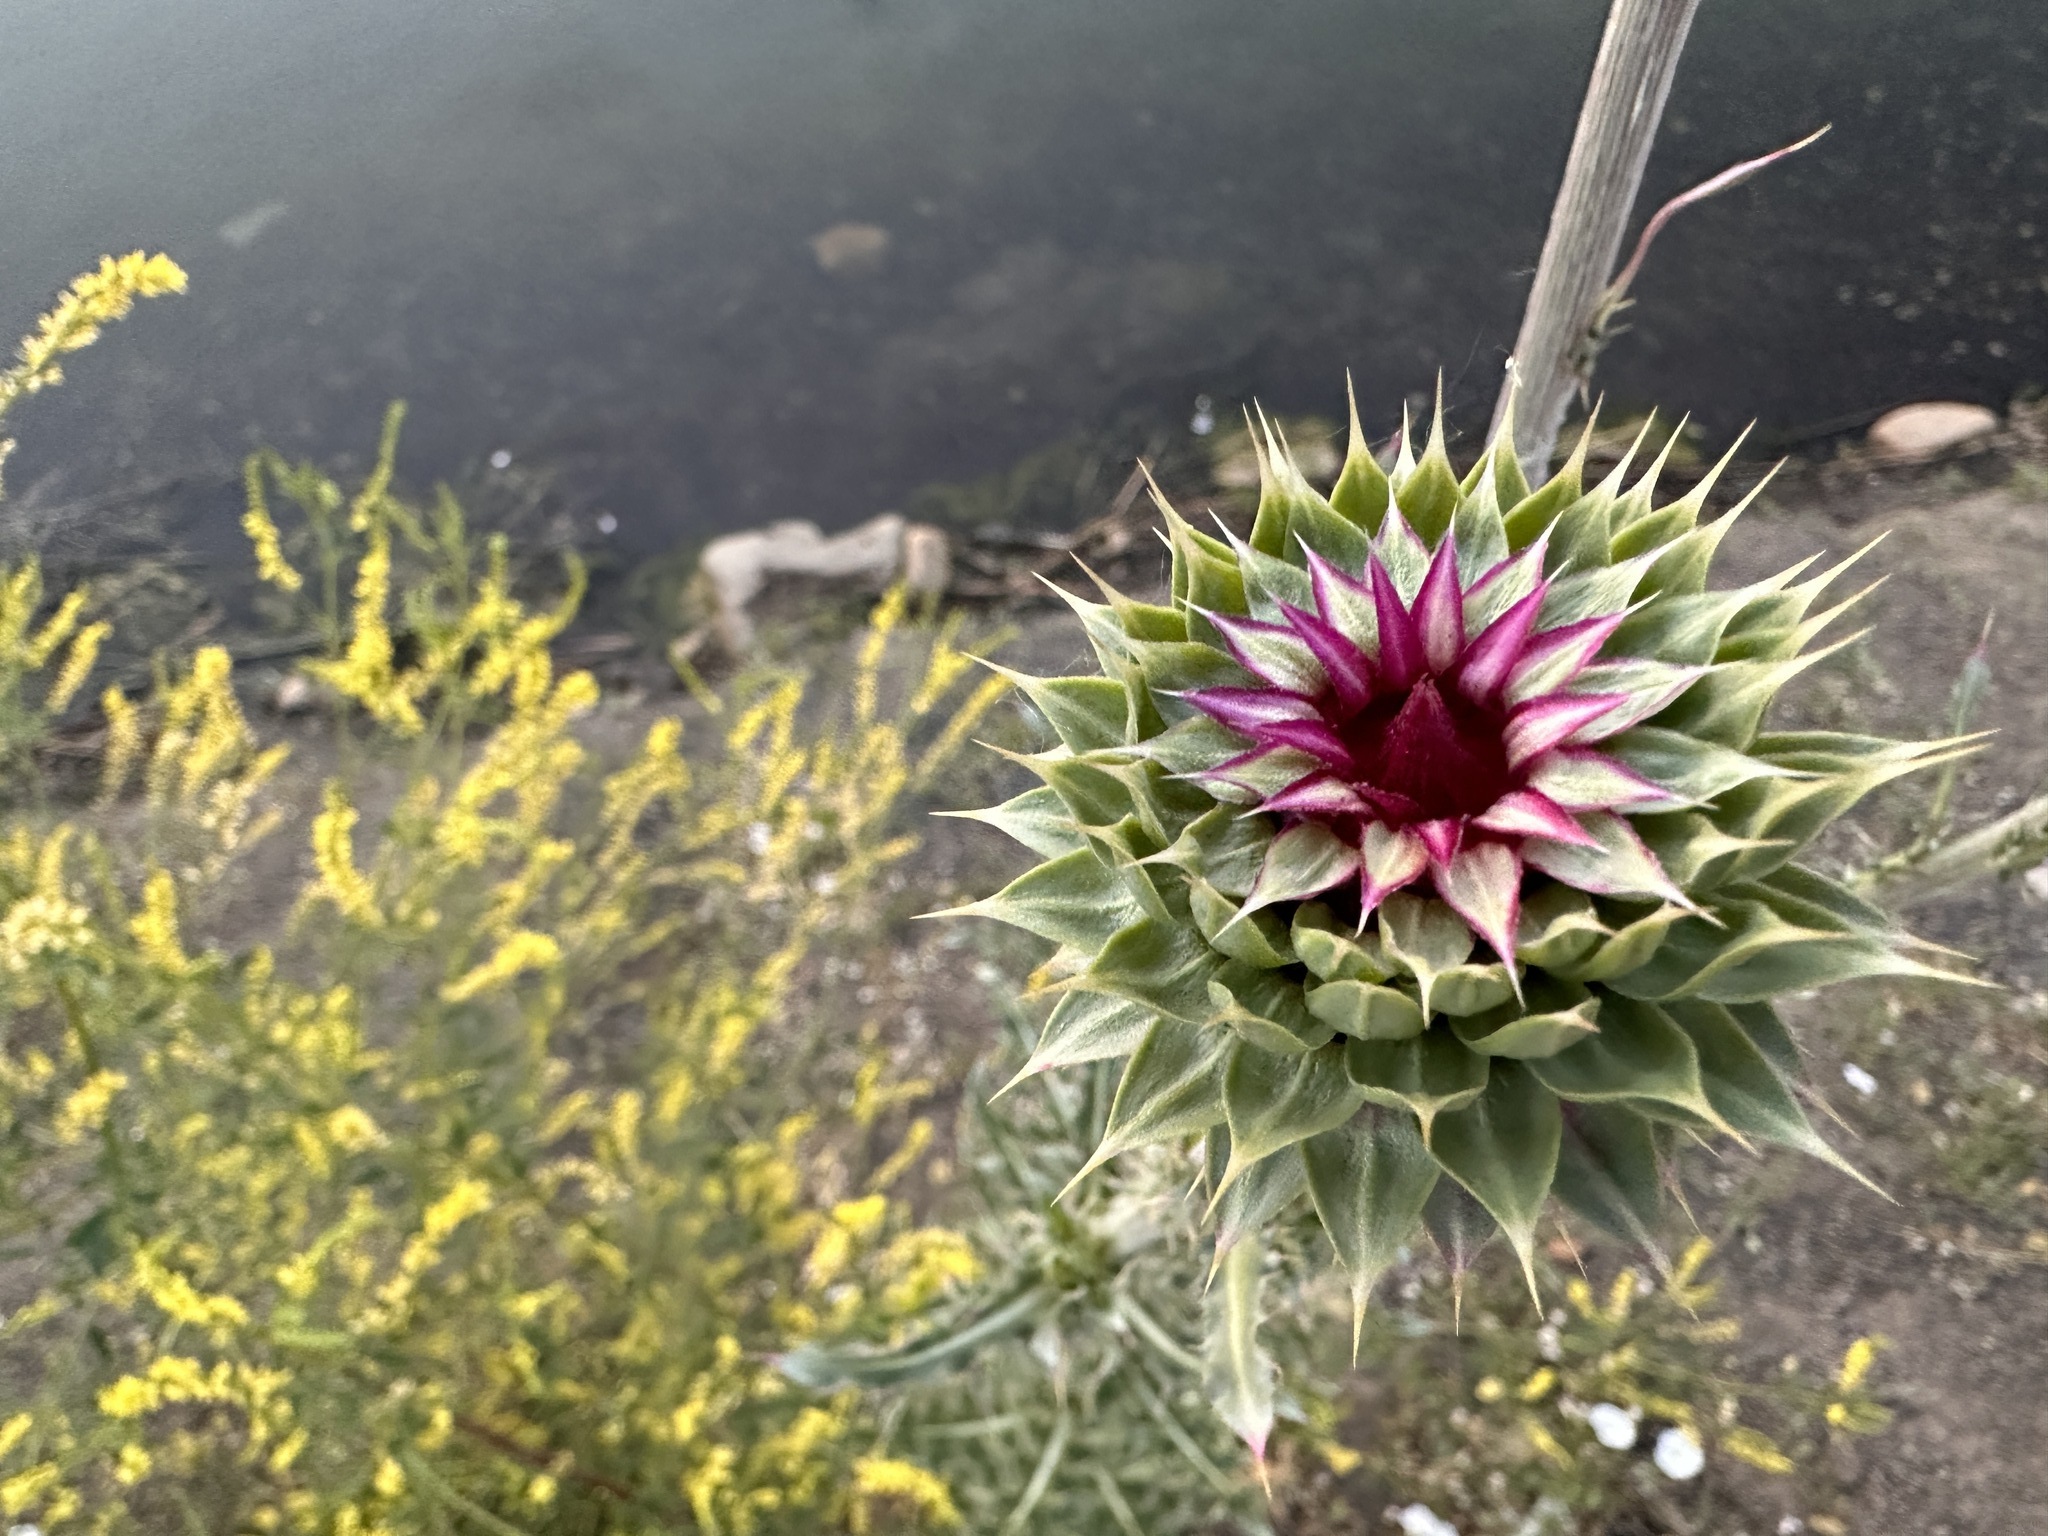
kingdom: Plantae
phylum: Tracheophyta
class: Magnoliopsida
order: Asterales
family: Asteraceae
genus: Carduus
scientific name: Carduus nutans
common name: Musk thistle
